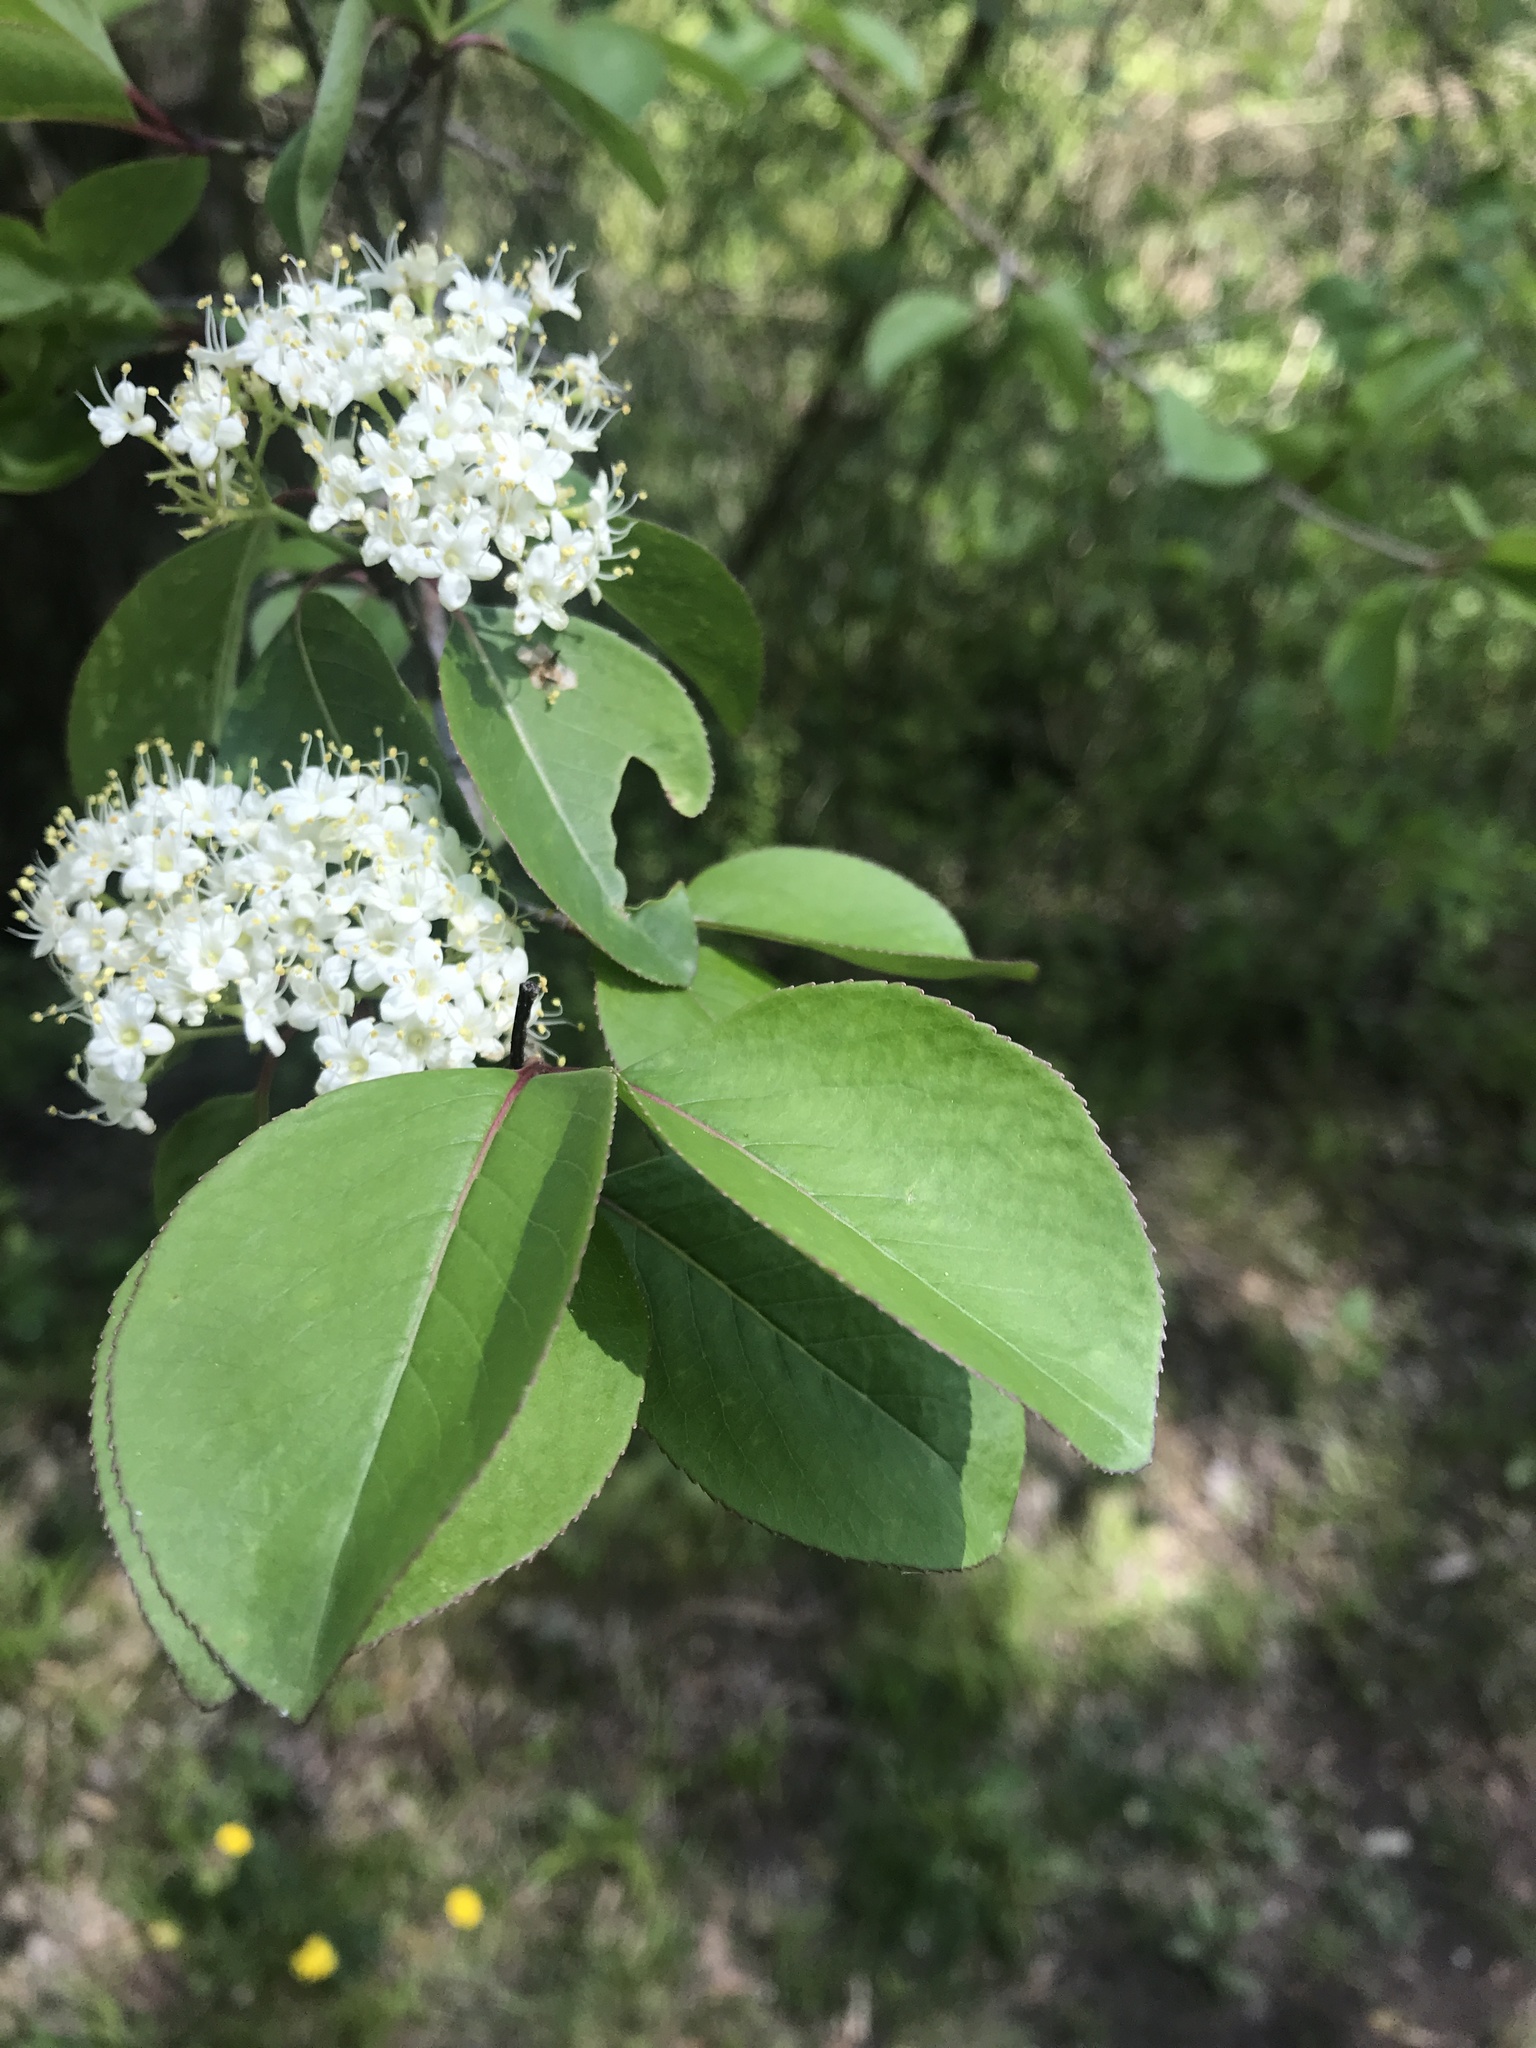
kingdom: Plantae
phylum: Tracheophyta
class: Magnoliopsida
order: Dipsacales
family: Viburnaceae
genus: Viburnum
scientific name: Viburnum prunifolium
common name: Black haw
